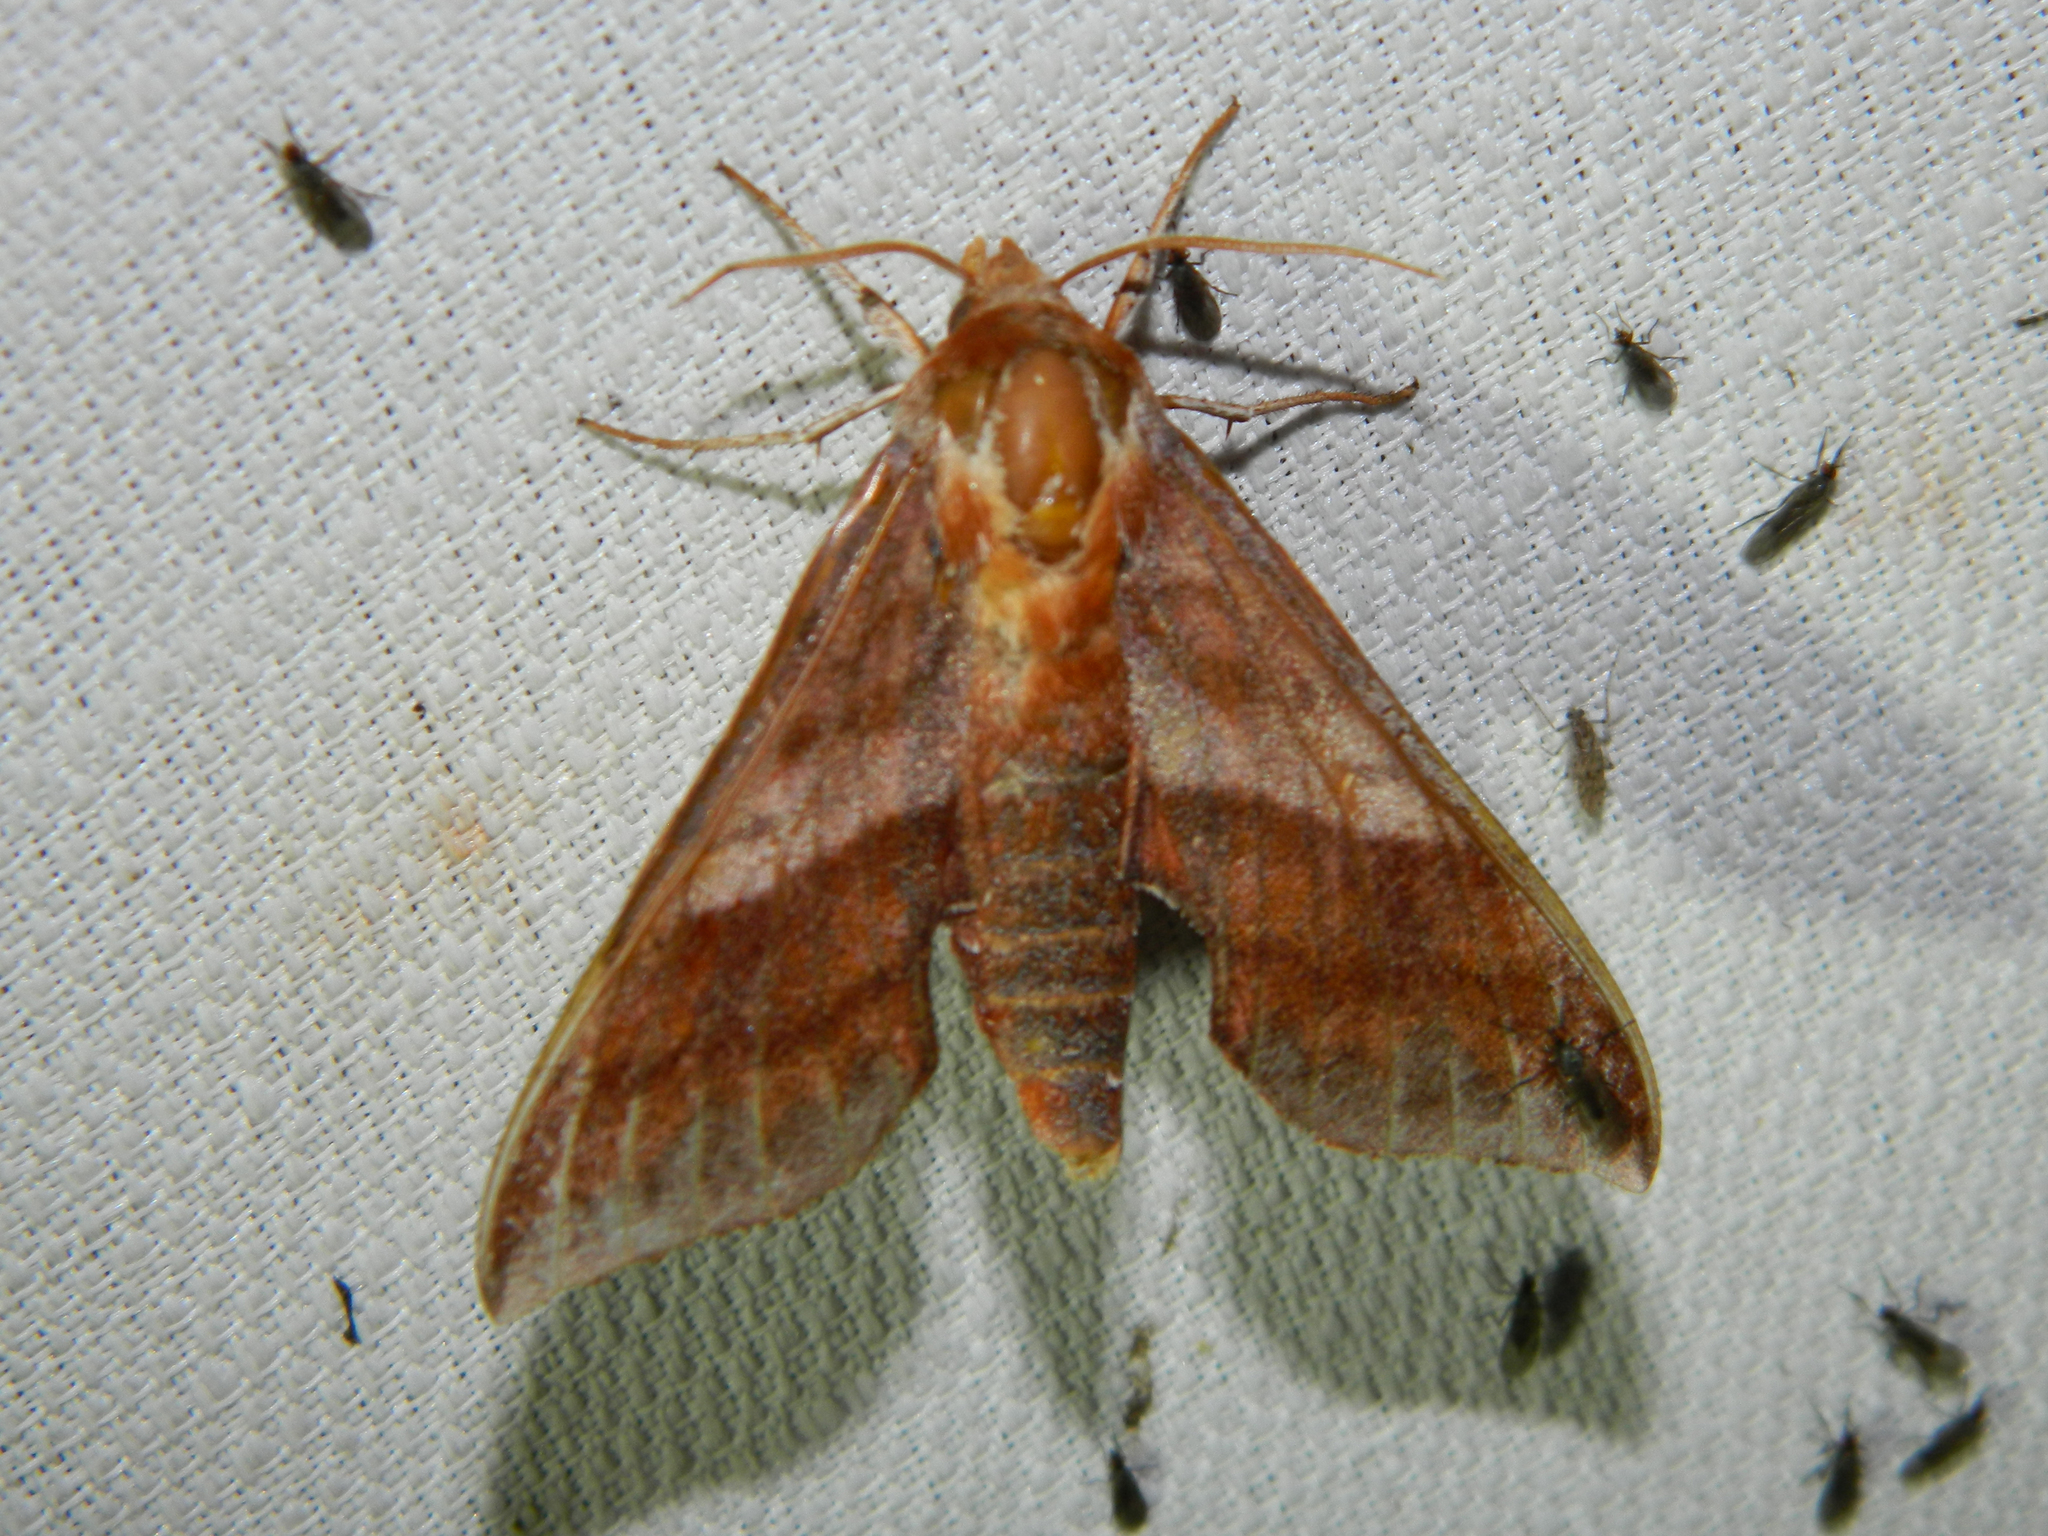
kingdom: Animalia
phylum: Arthropoda
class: Insecta
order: Lepidoptera
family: Sphingidae
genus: Darapsa
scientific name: Darapsa choerilus
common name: Azalea sphinx
